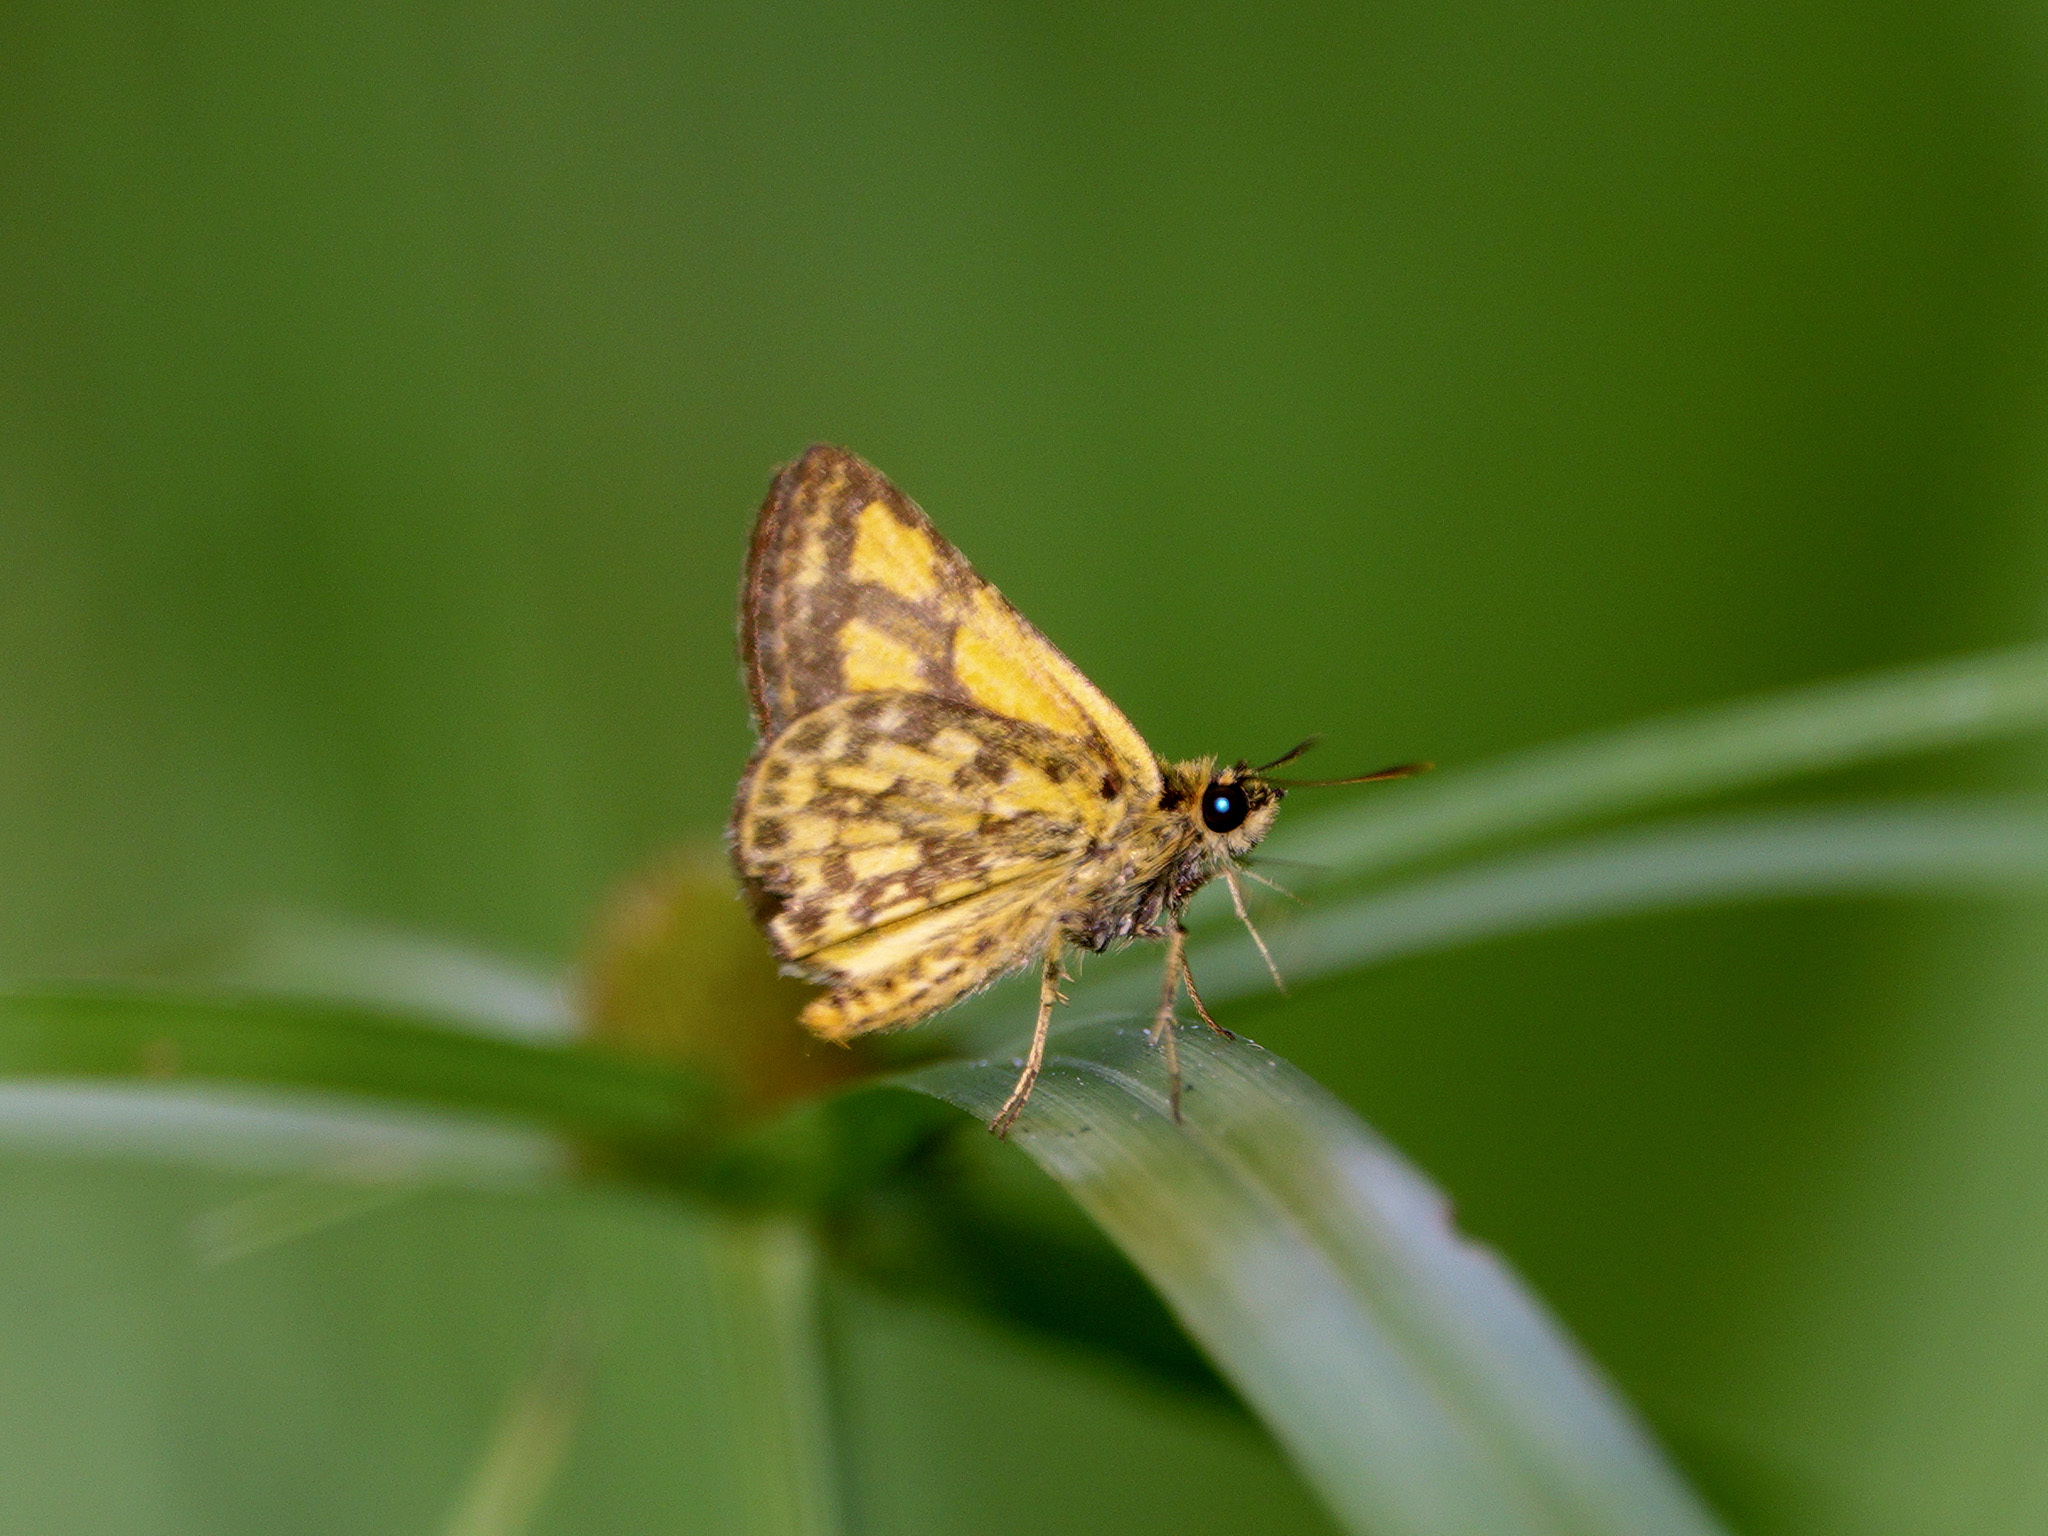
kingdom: Animalia
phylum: Arthropoda
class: Insecta
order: Lepidoptera
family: Hesperiidae
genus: Ampittia
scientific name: Ampittia dioscorides
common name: Common bush hopper
